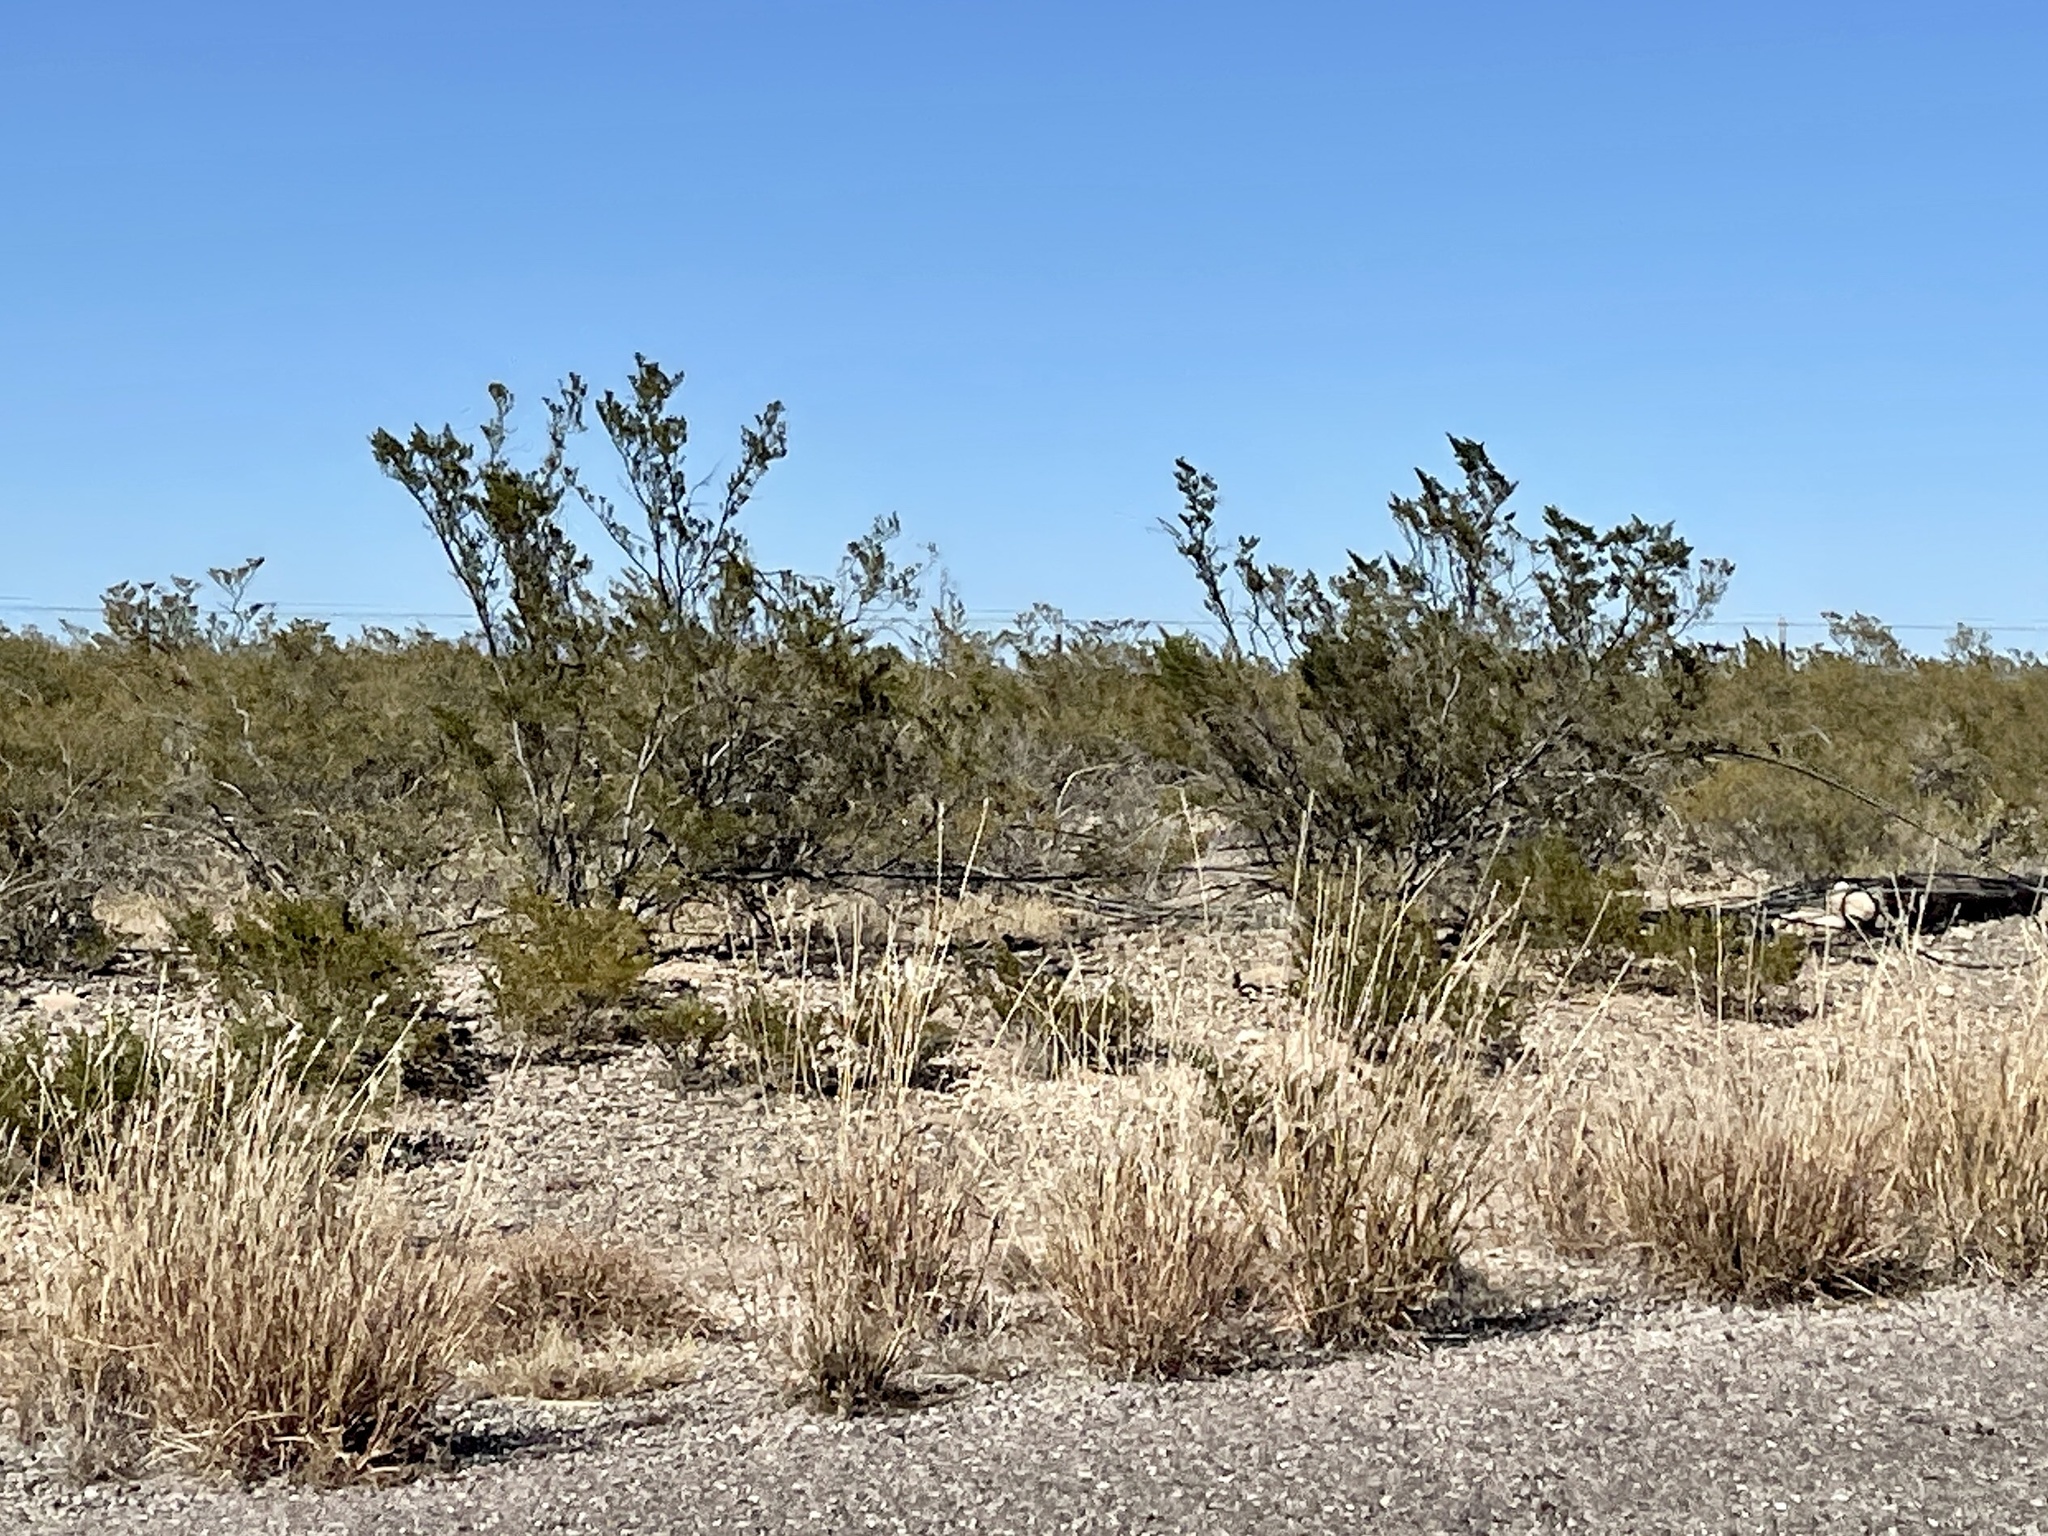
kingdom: Plantae
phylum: Tracheophyta
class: Magnoliopsida
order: Zygophyllales
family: Zygophyllaceae
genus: Larrea
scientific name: Larrea tridentata
